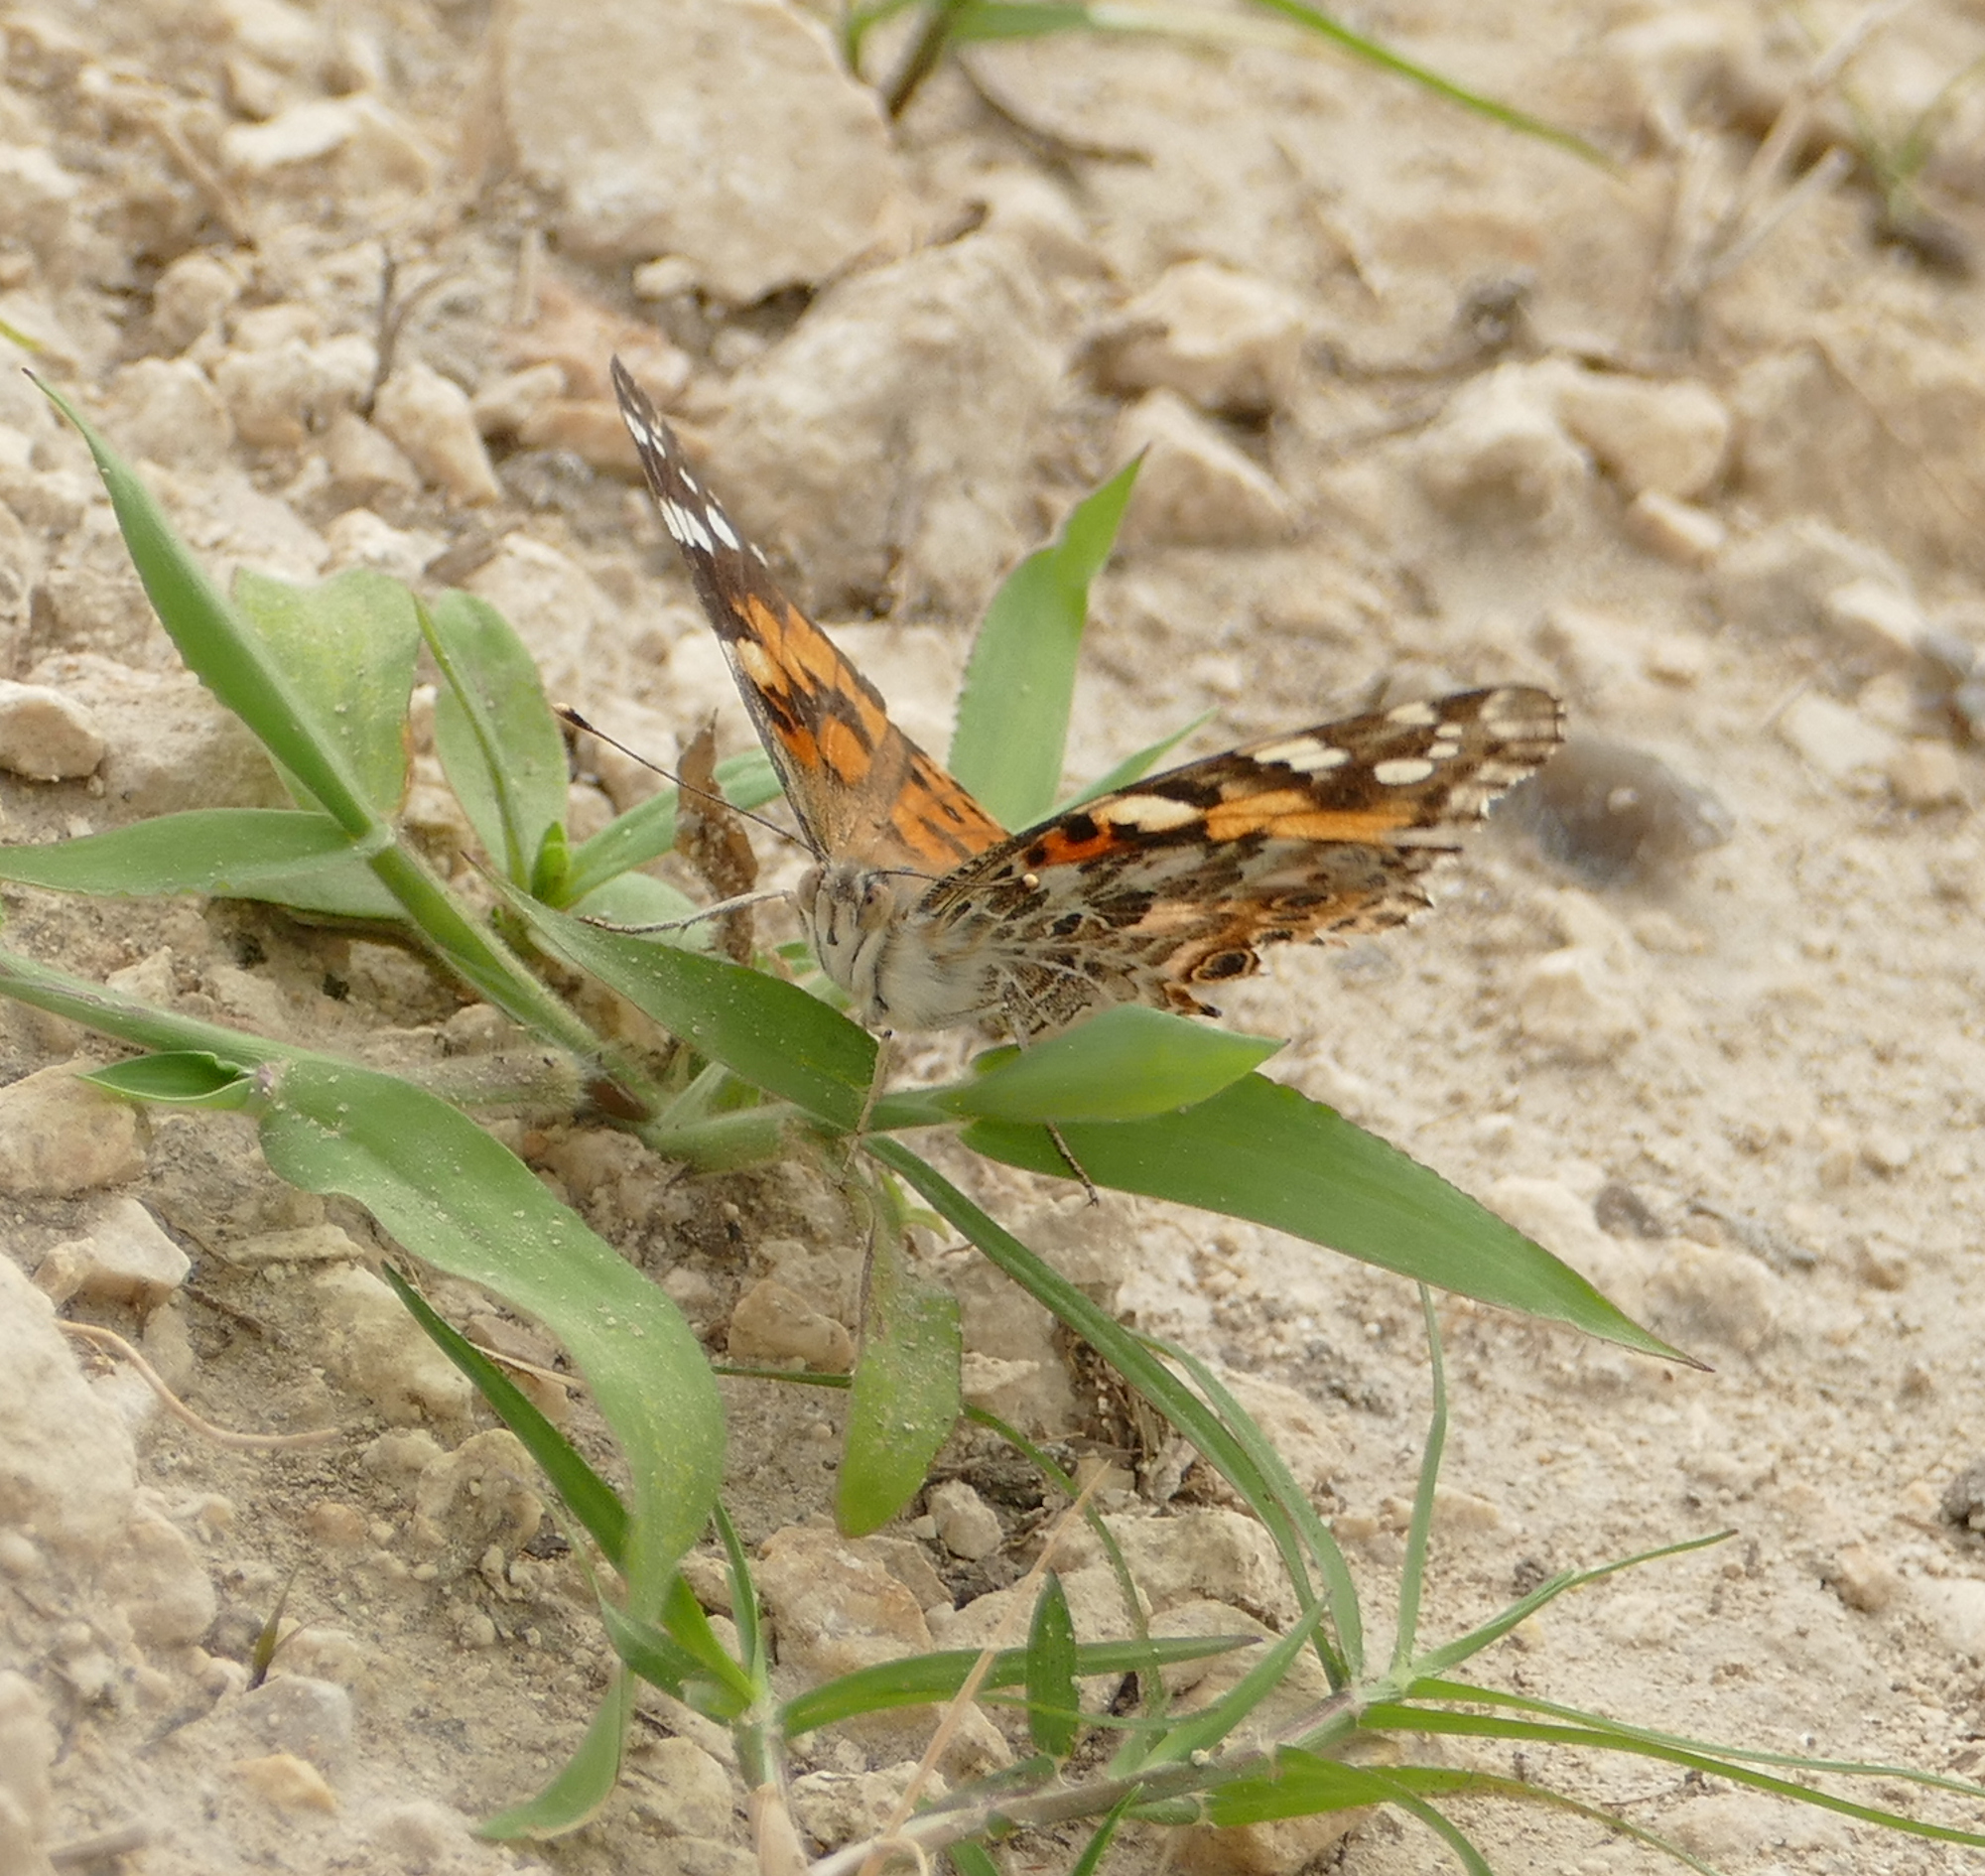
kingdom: Animalia
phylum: Arthropoda
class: Insecta
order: Lepidoptera
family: Nymphalidae
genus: Vanessa
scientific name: Vanessa cardui
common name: Painted lady
